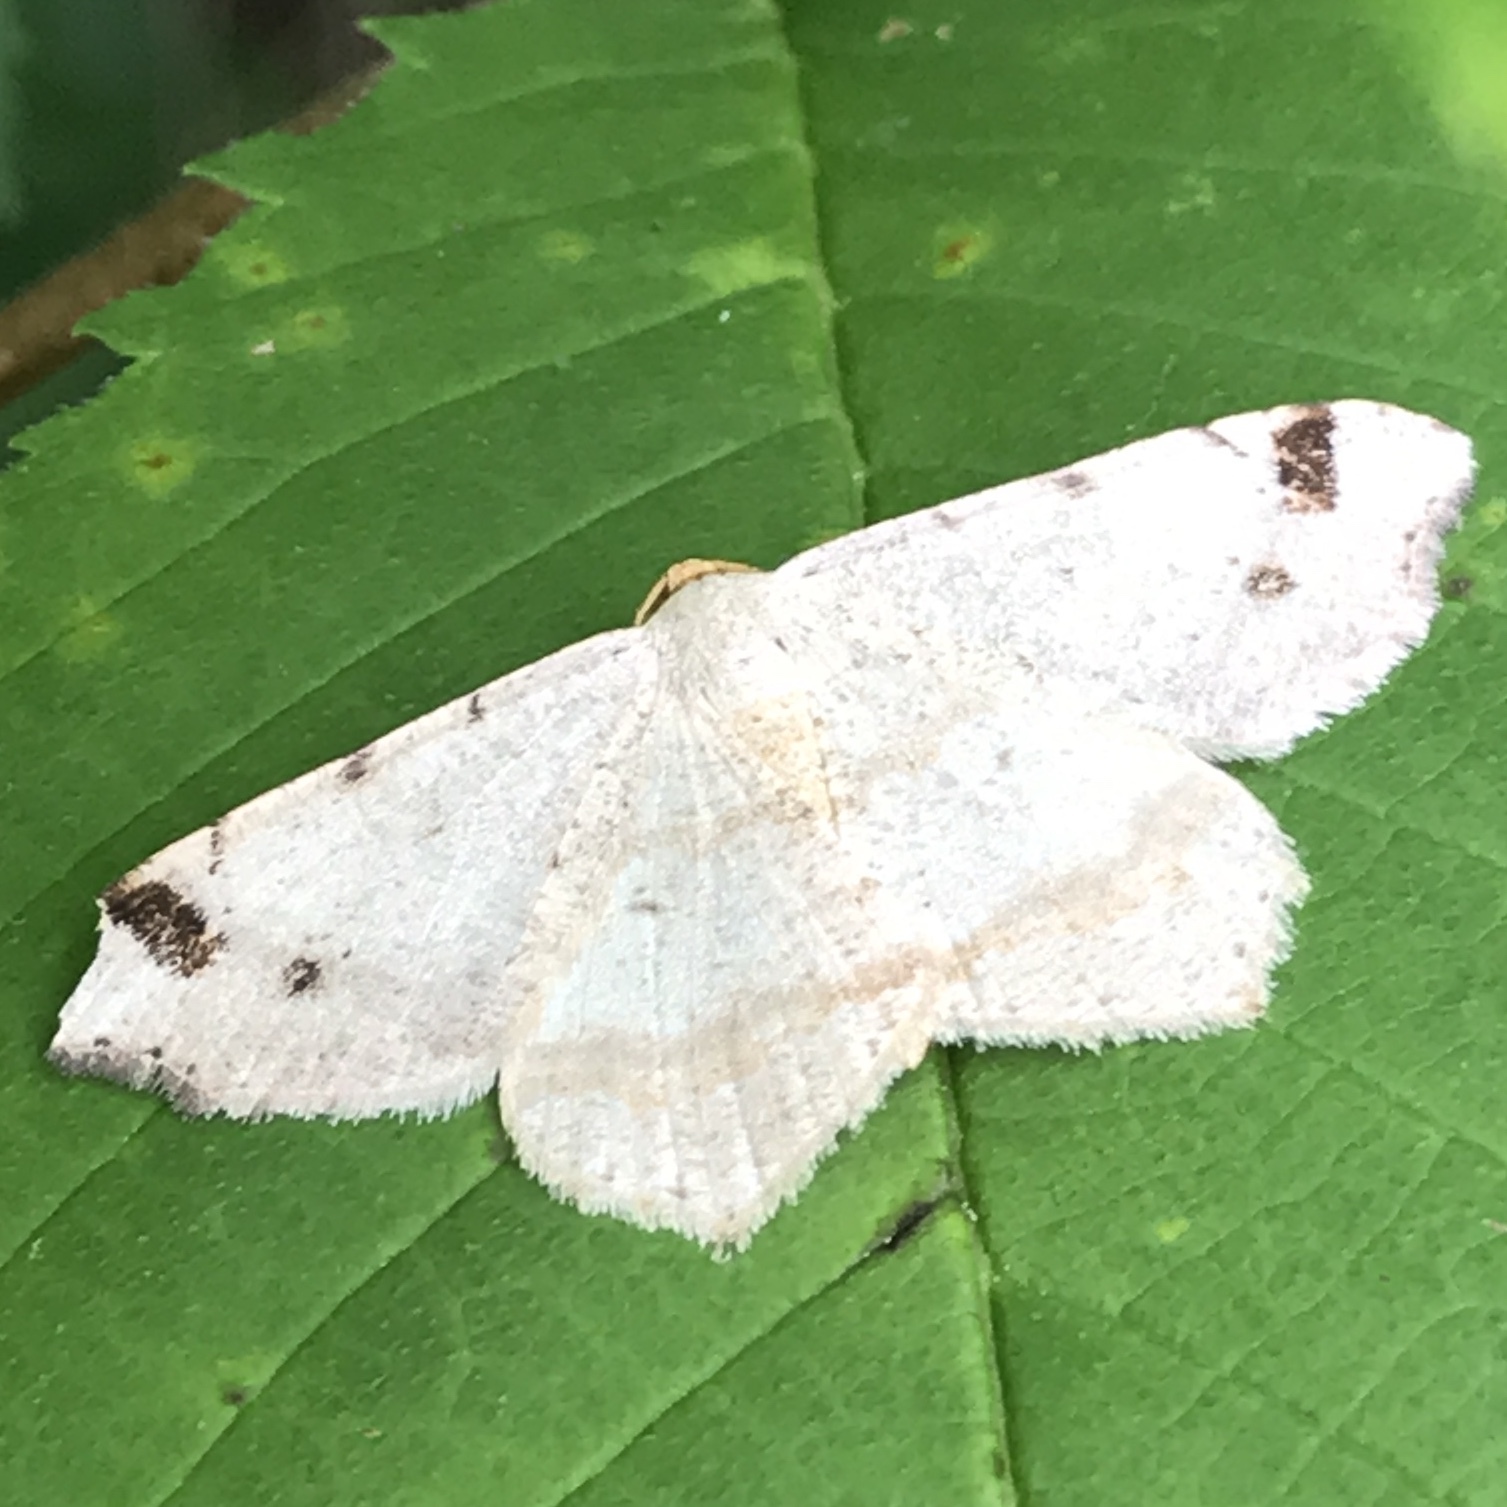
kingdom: Animalia
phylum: Arthropoda
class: Insecta
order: Lepidoptera
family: Geometridae
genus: Macaria
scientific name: Macaria aemulataria
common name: Common angle
